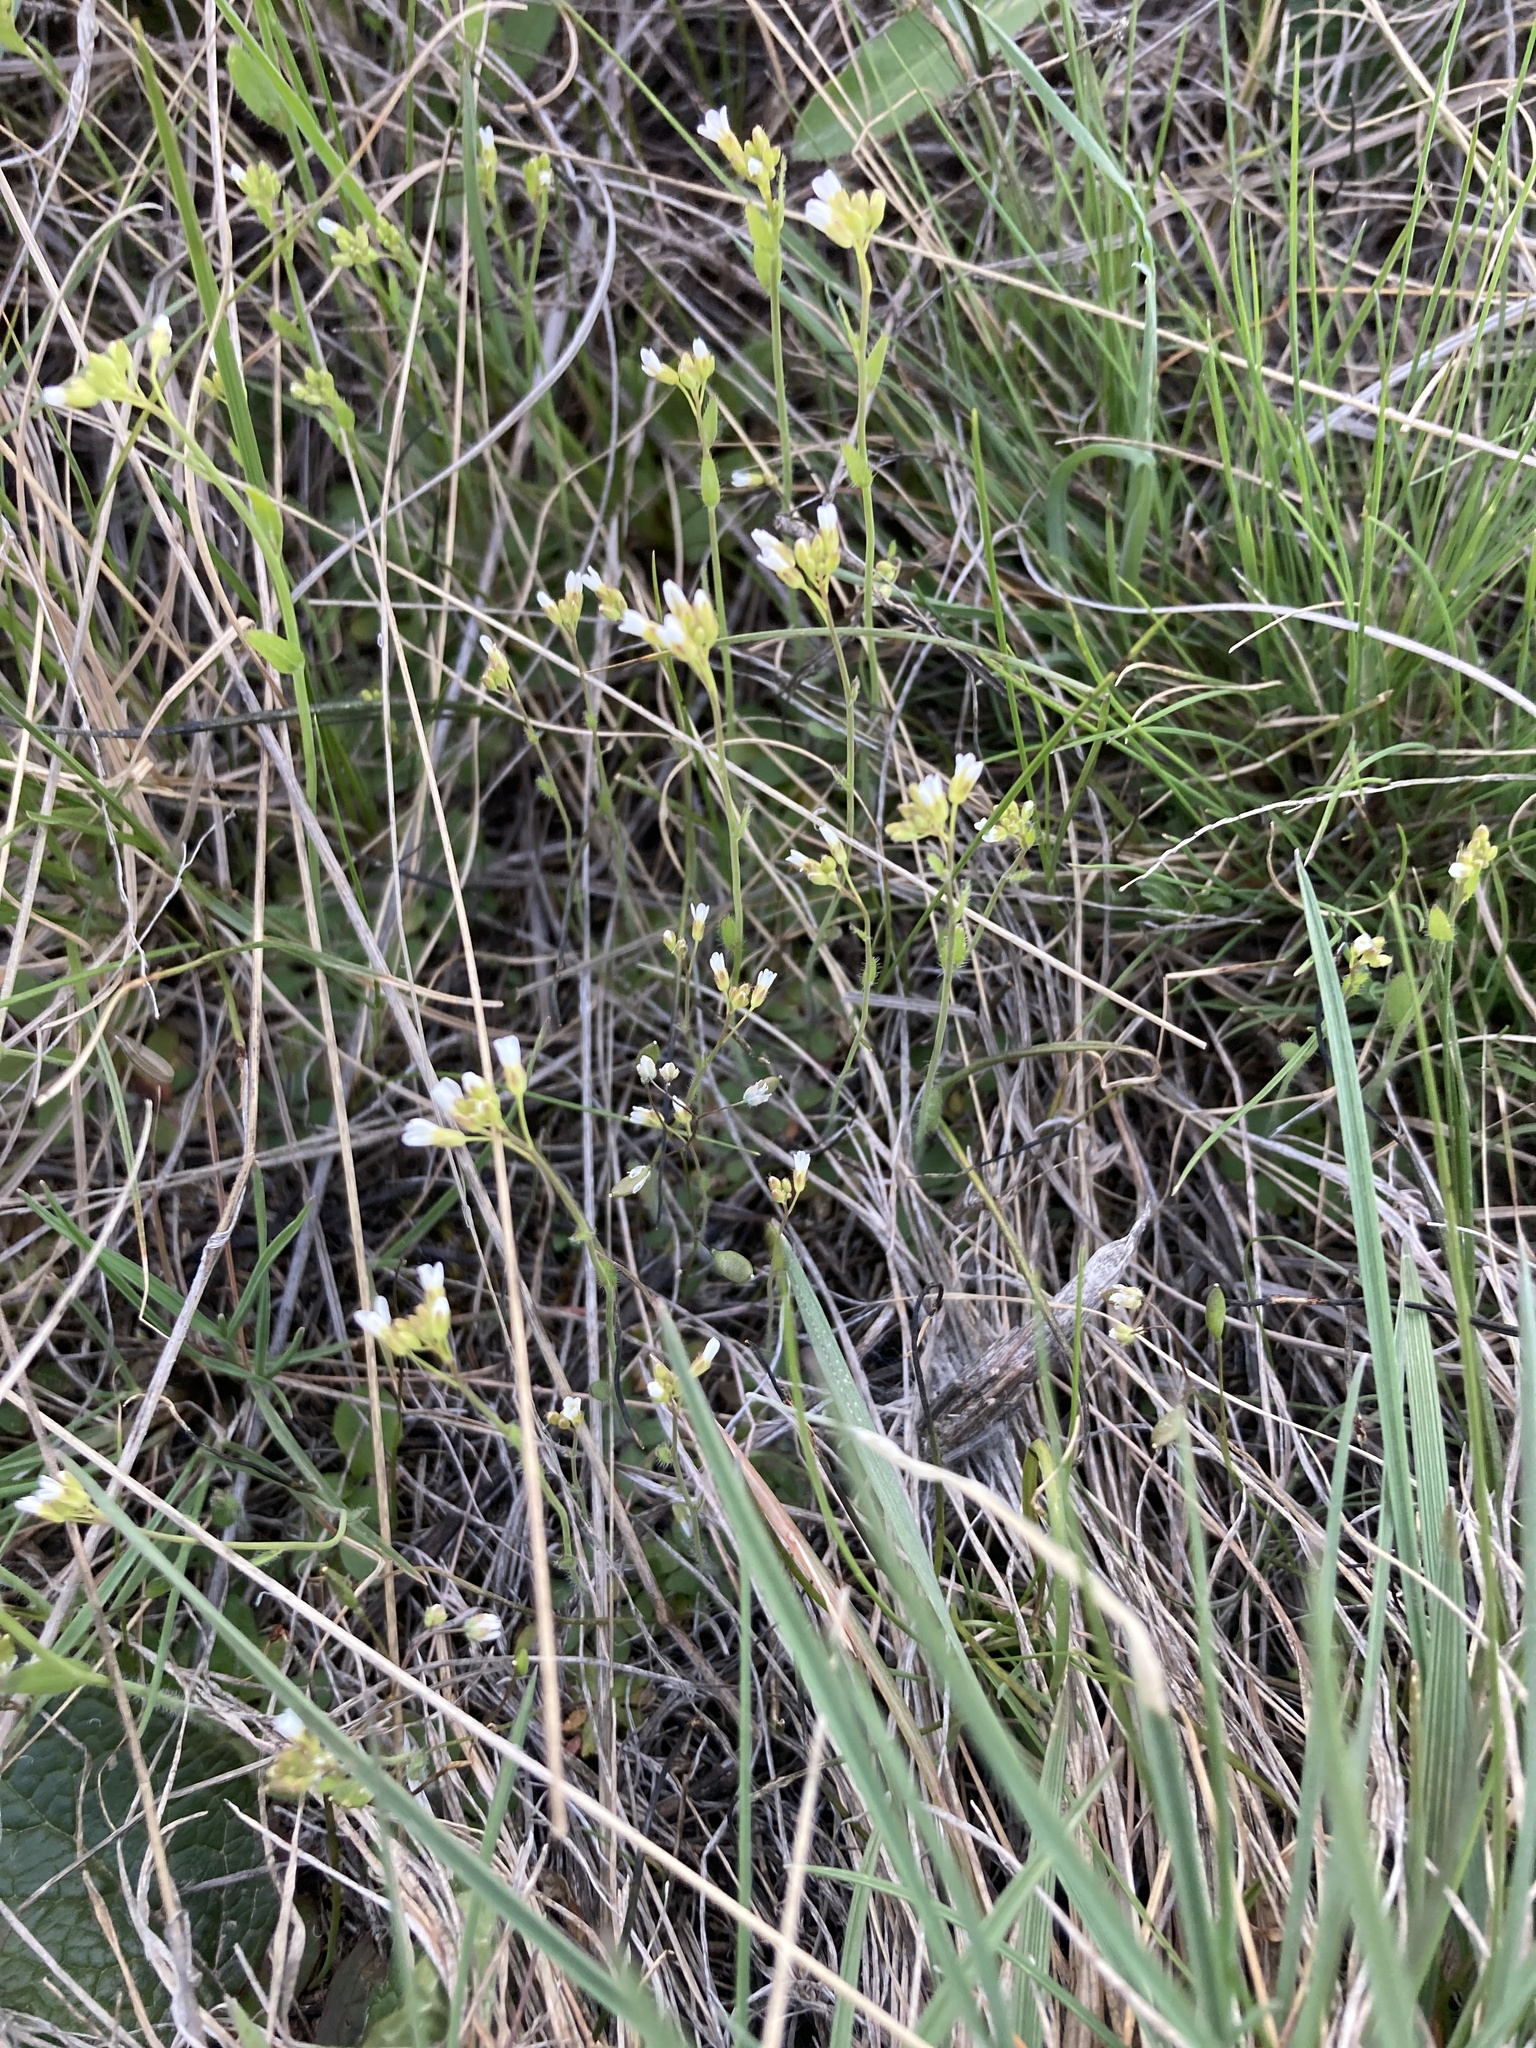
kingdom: Plantae
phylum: Tracheophyta
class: Magnoliopsida
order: Brassicales
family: Brassicaceae
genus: Arabidopsis
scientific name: Arabidopsis thaliana
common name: Thale cress
